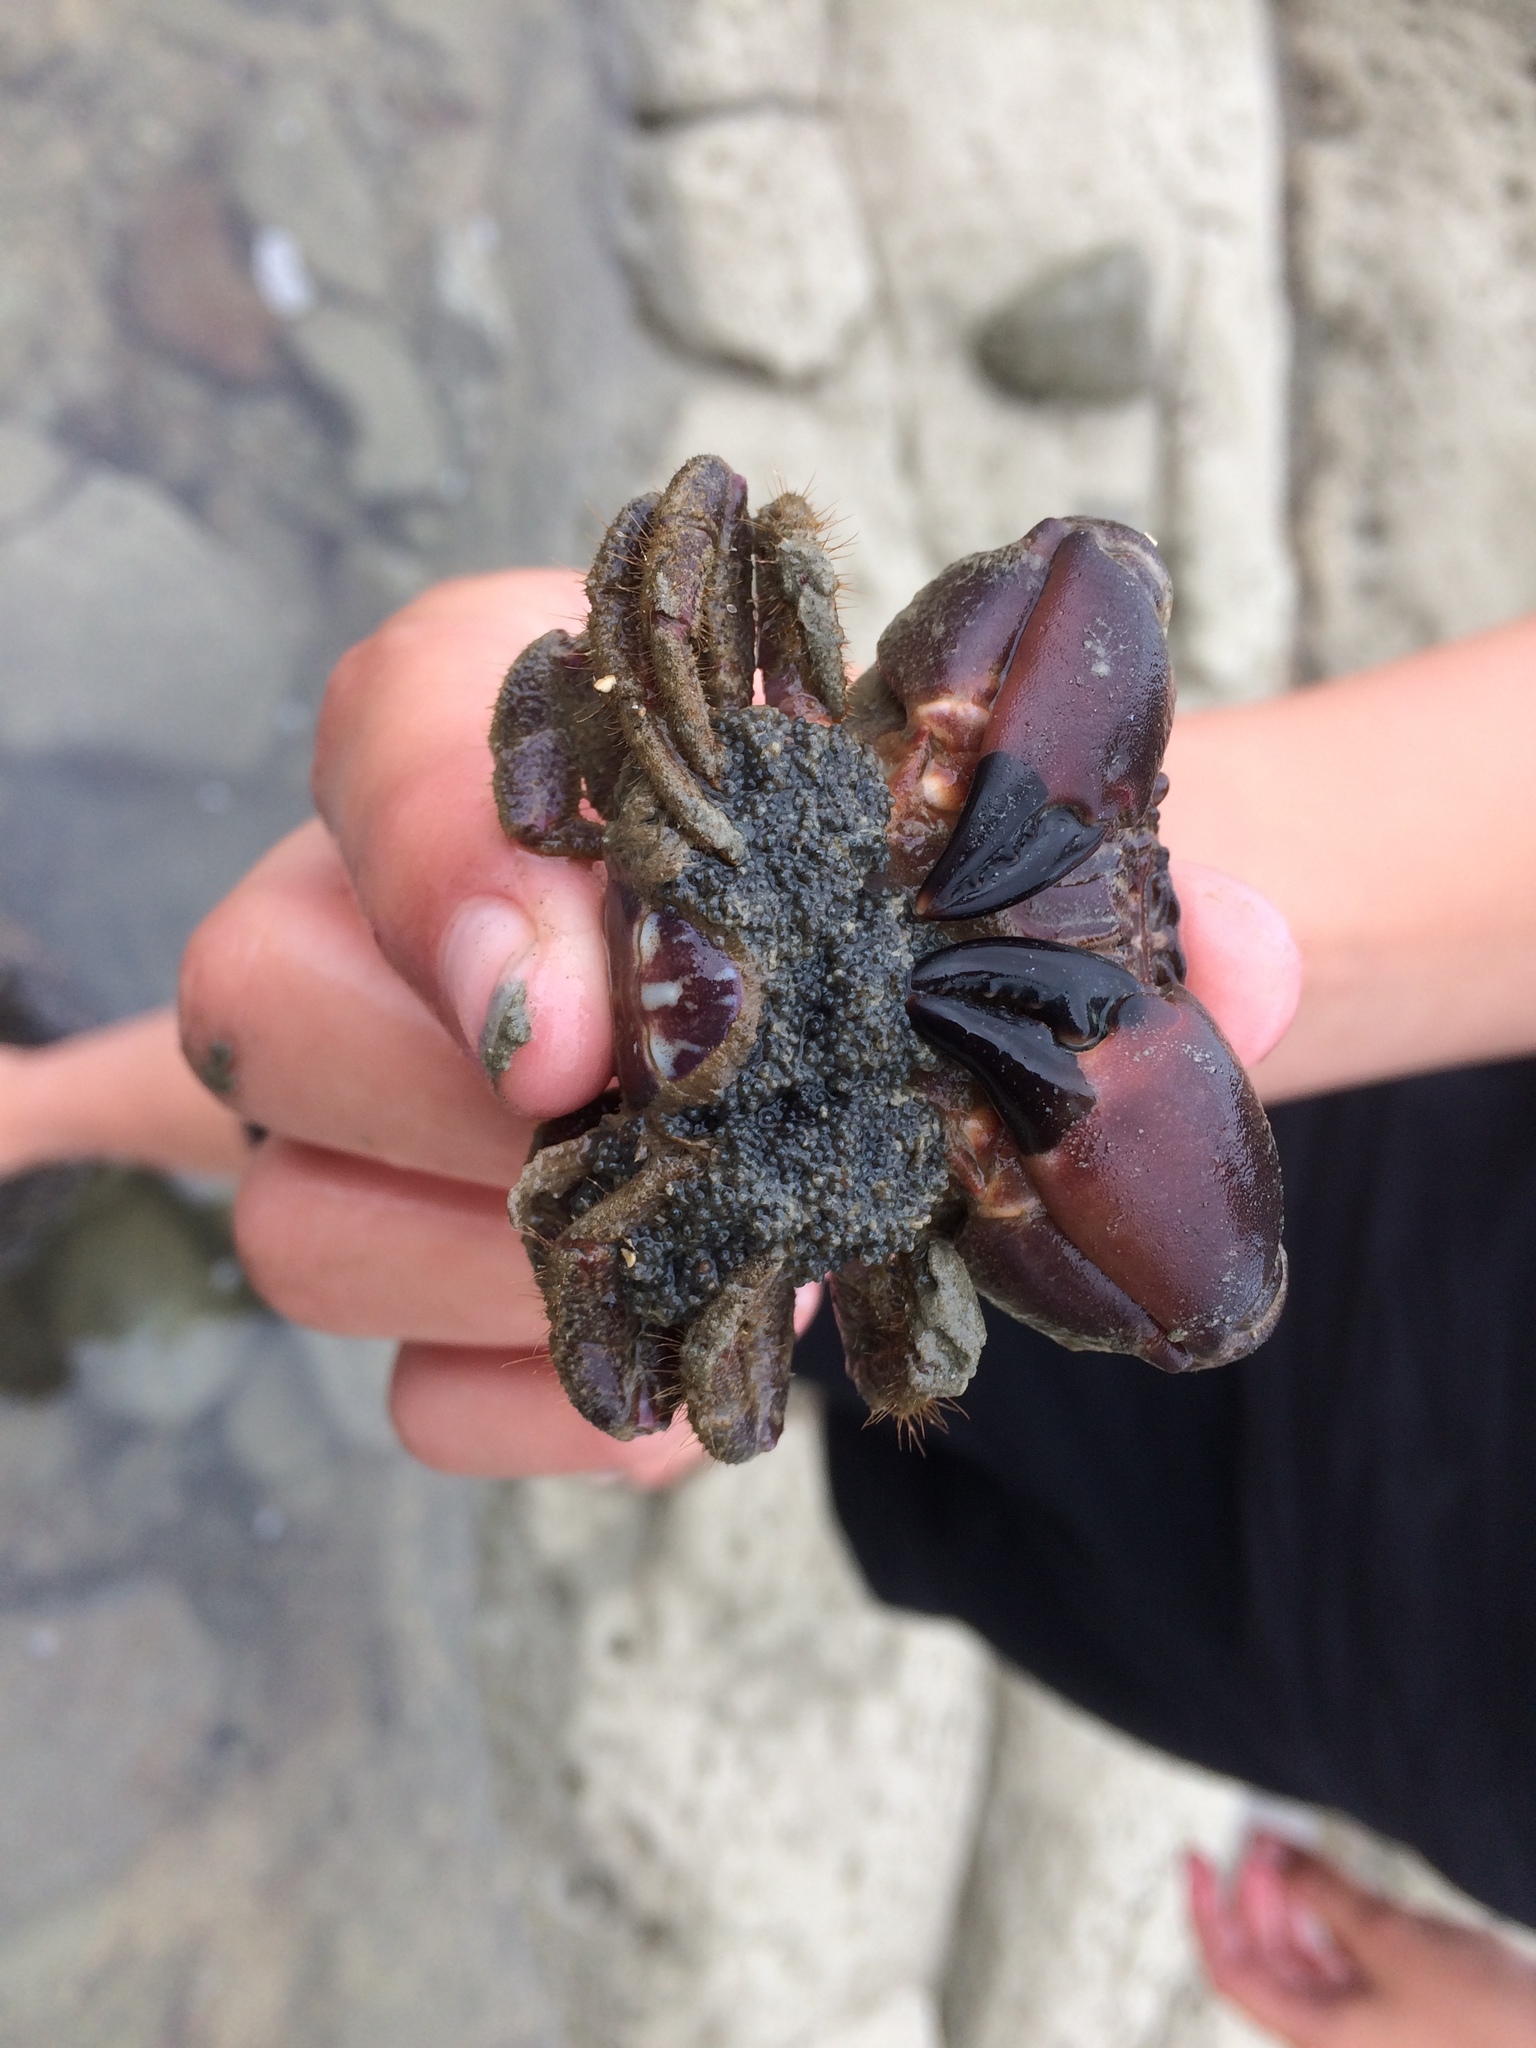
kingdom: Animalia
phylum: Arthropoda
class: Malacostraca
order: Decapoda
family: Oziidae
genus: Ozius
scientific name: Ozius deplanatus
